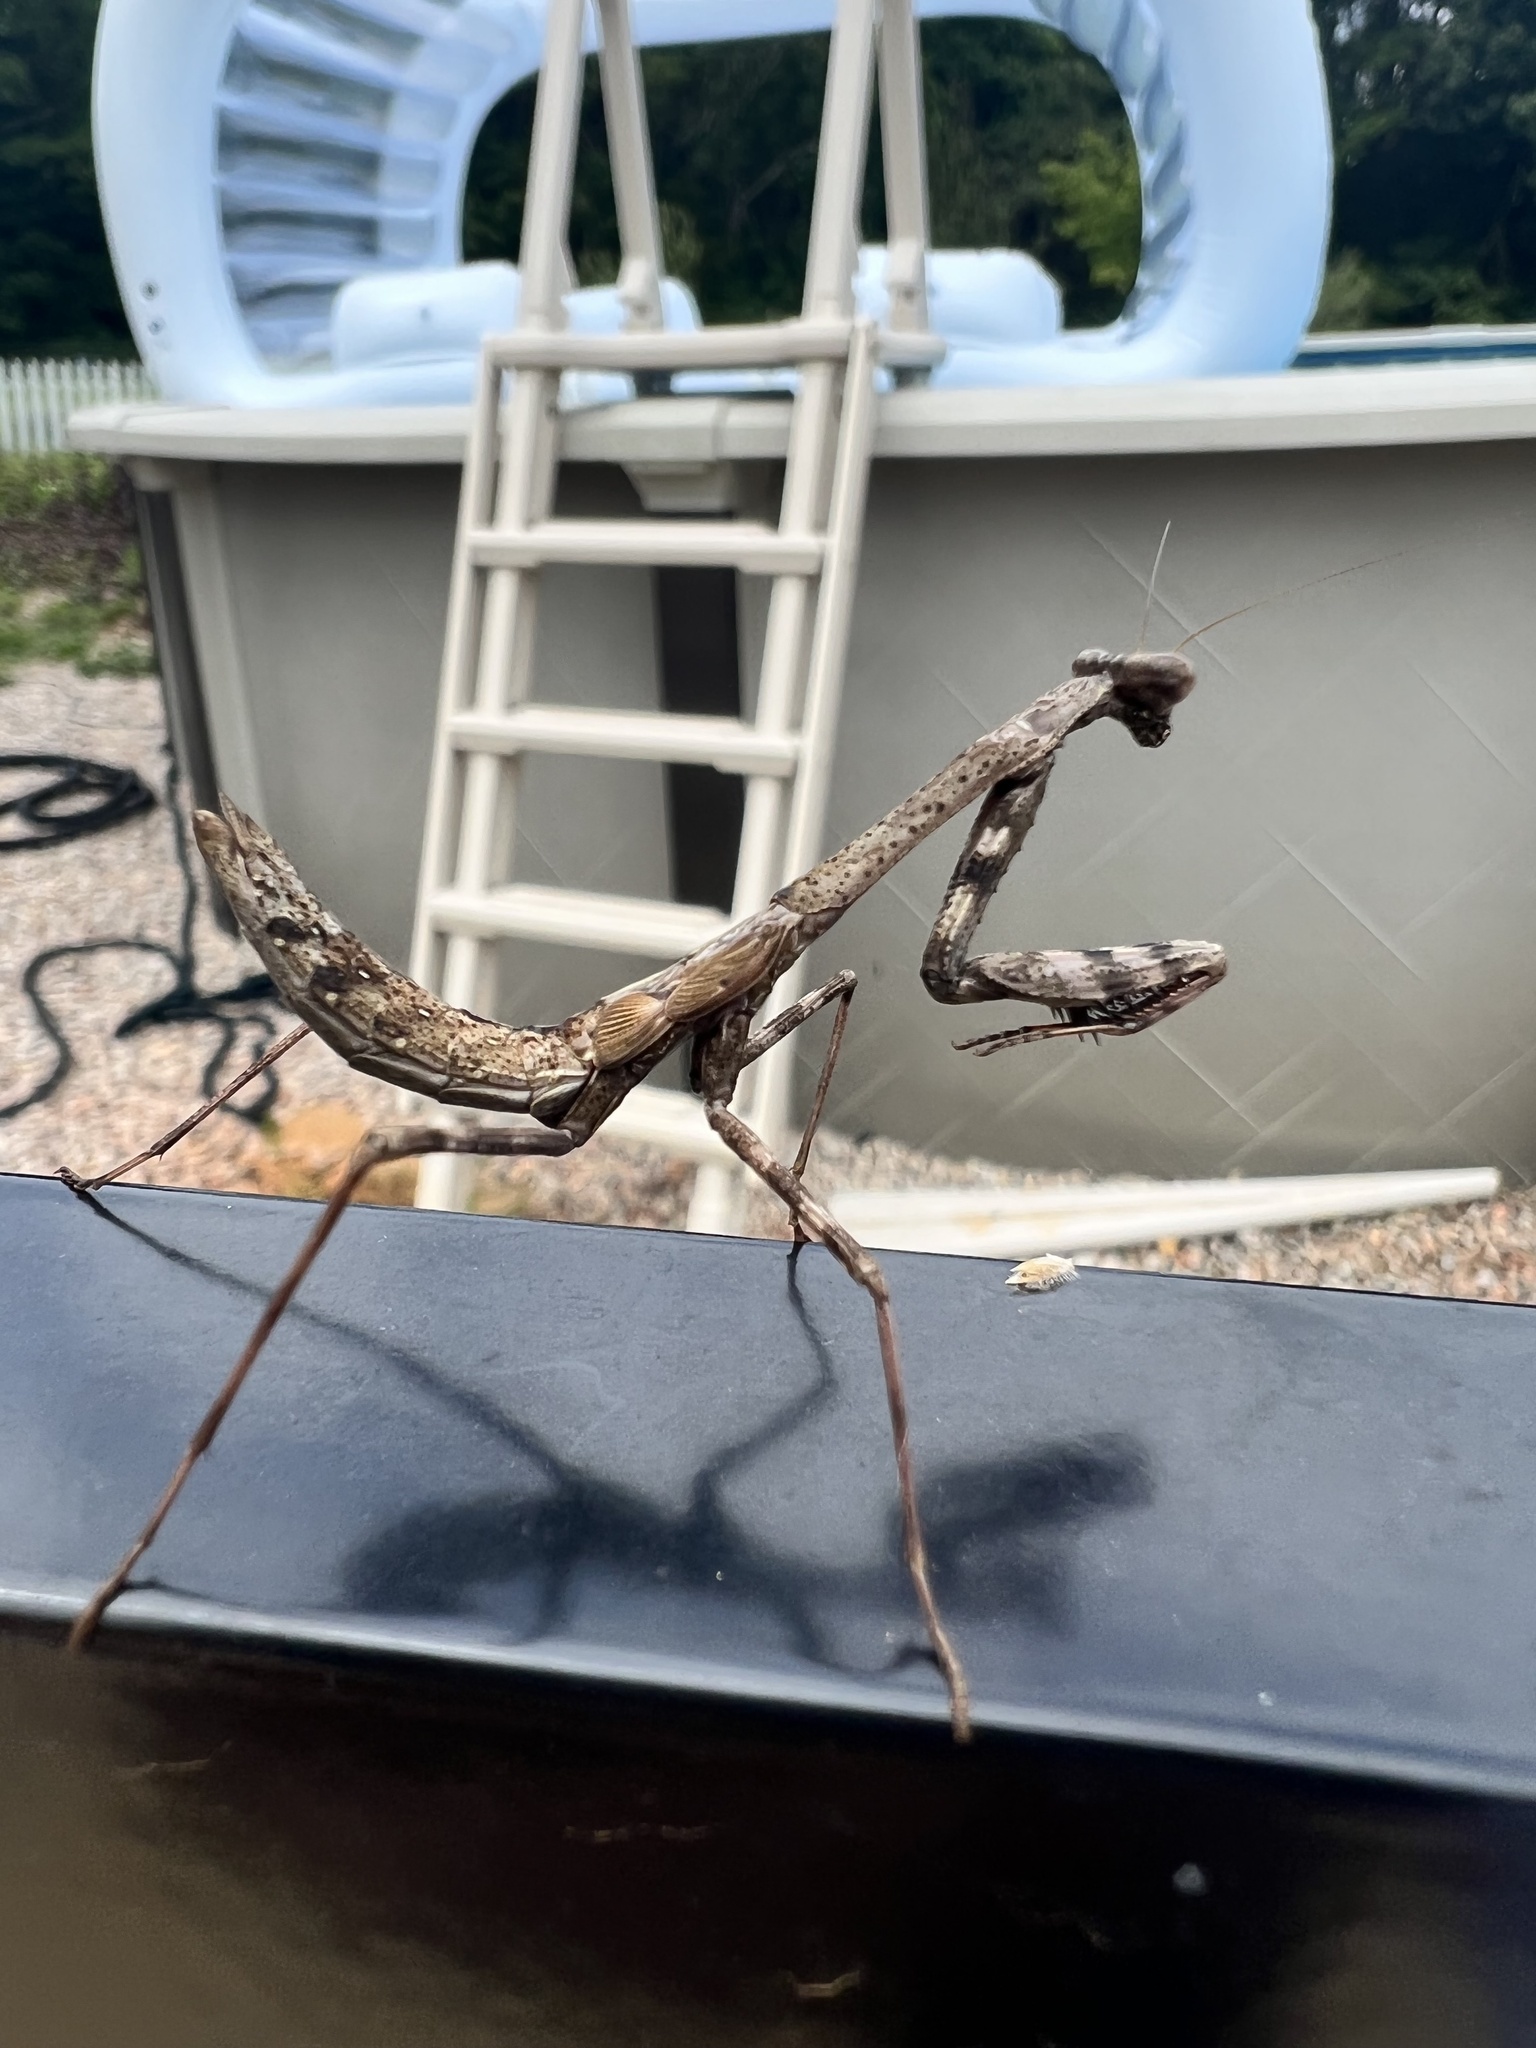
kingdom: Animalia
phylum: Arthropoda
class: Insecta
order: Mantodea
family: Mantidae
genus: Stagmomantis
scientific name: Stagmomantis carolina
